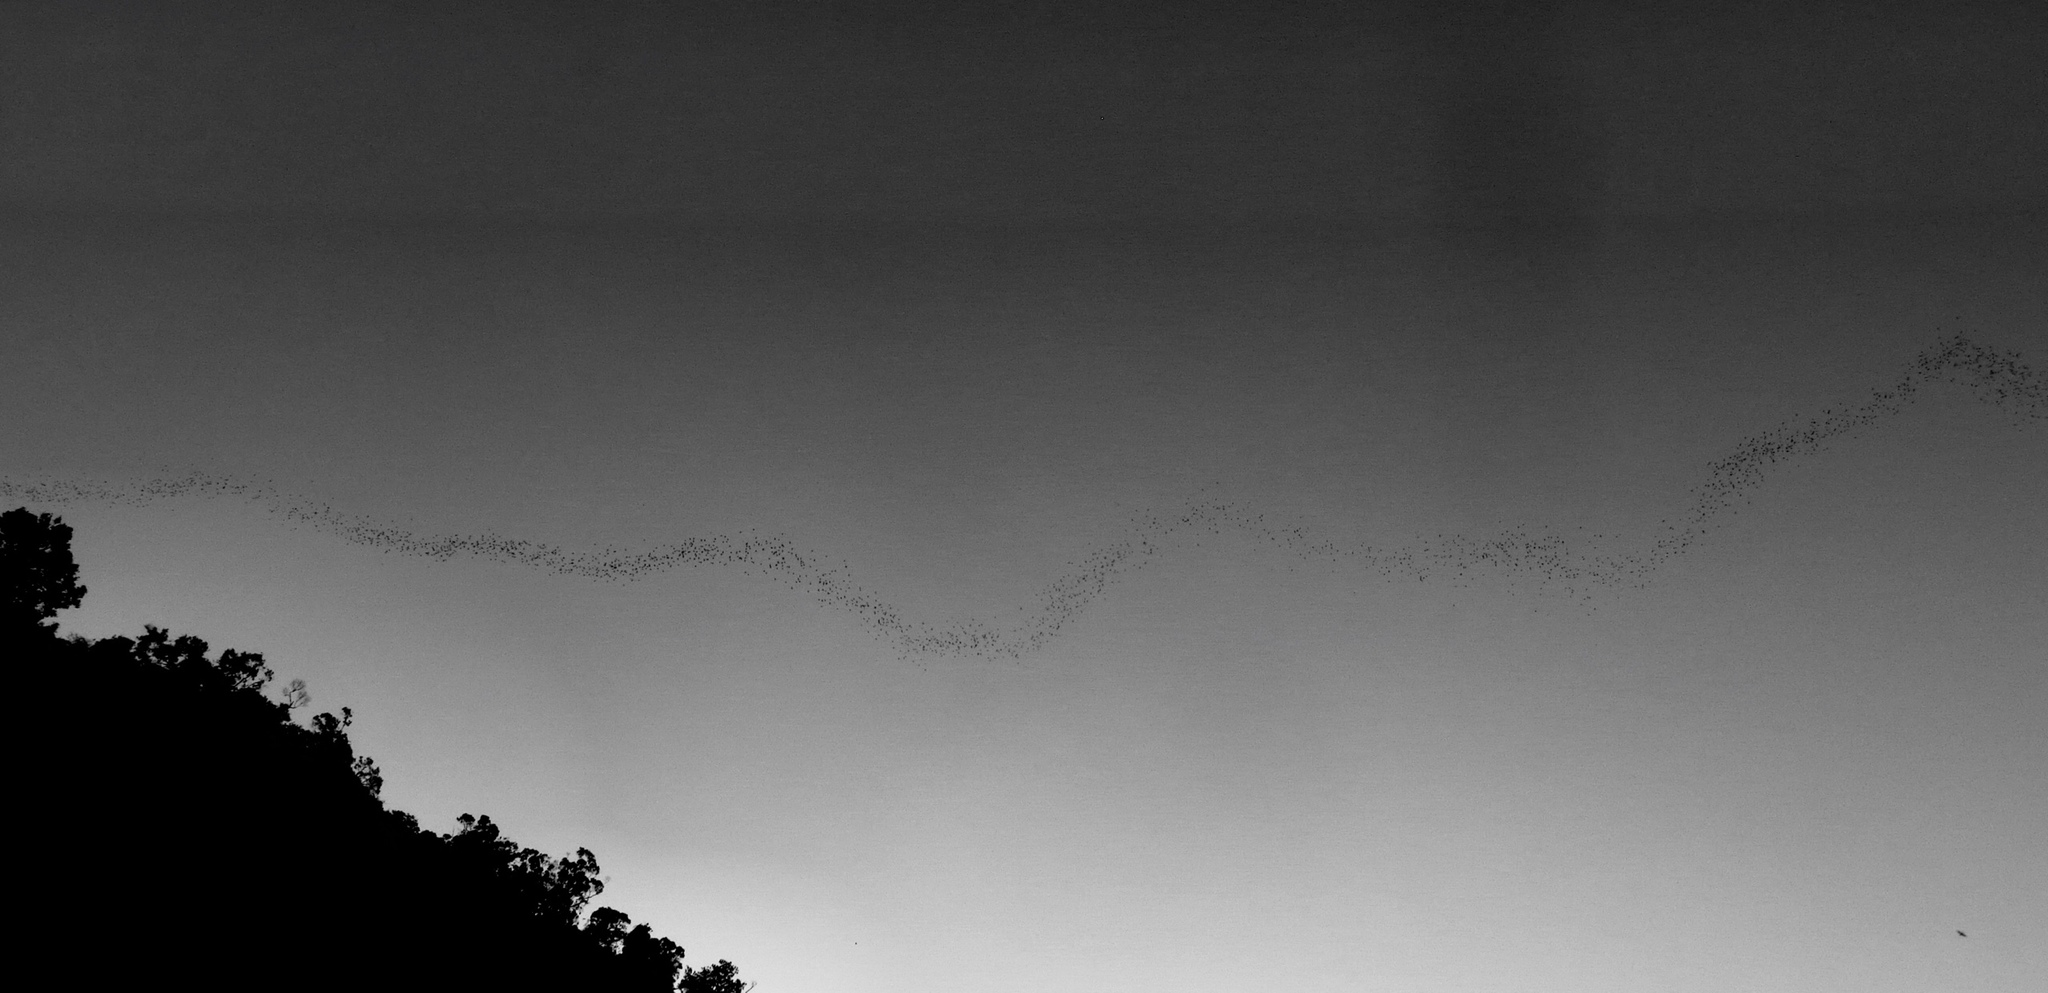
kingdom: Animalia
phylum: Chordata
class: Mammalia
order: Chiroptera
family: Molossidae
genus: Mops
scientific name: Mops
